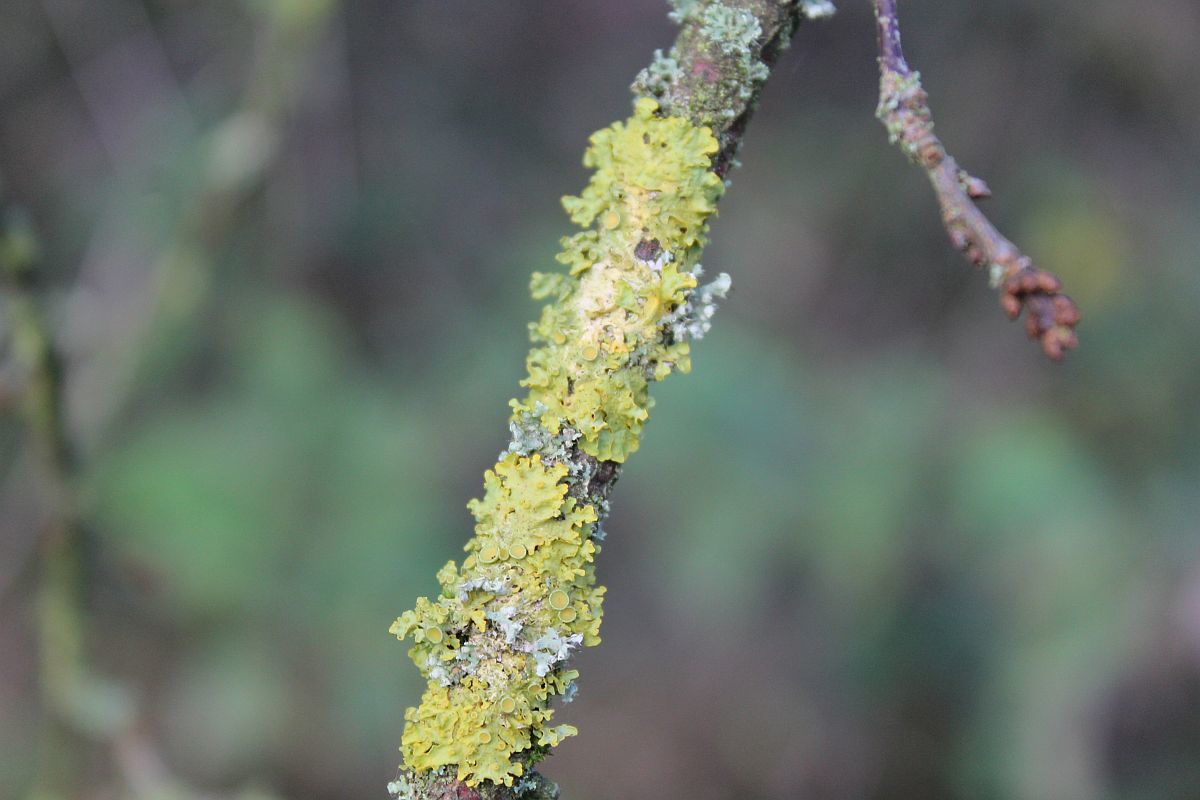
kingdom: Fungi
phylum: Ascomycota
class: Lecanoromycetes
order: Teloschistales
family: Teloschistaceae
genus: Xanthoria
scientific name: Xanthoria parietina
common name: Common orange lichen
